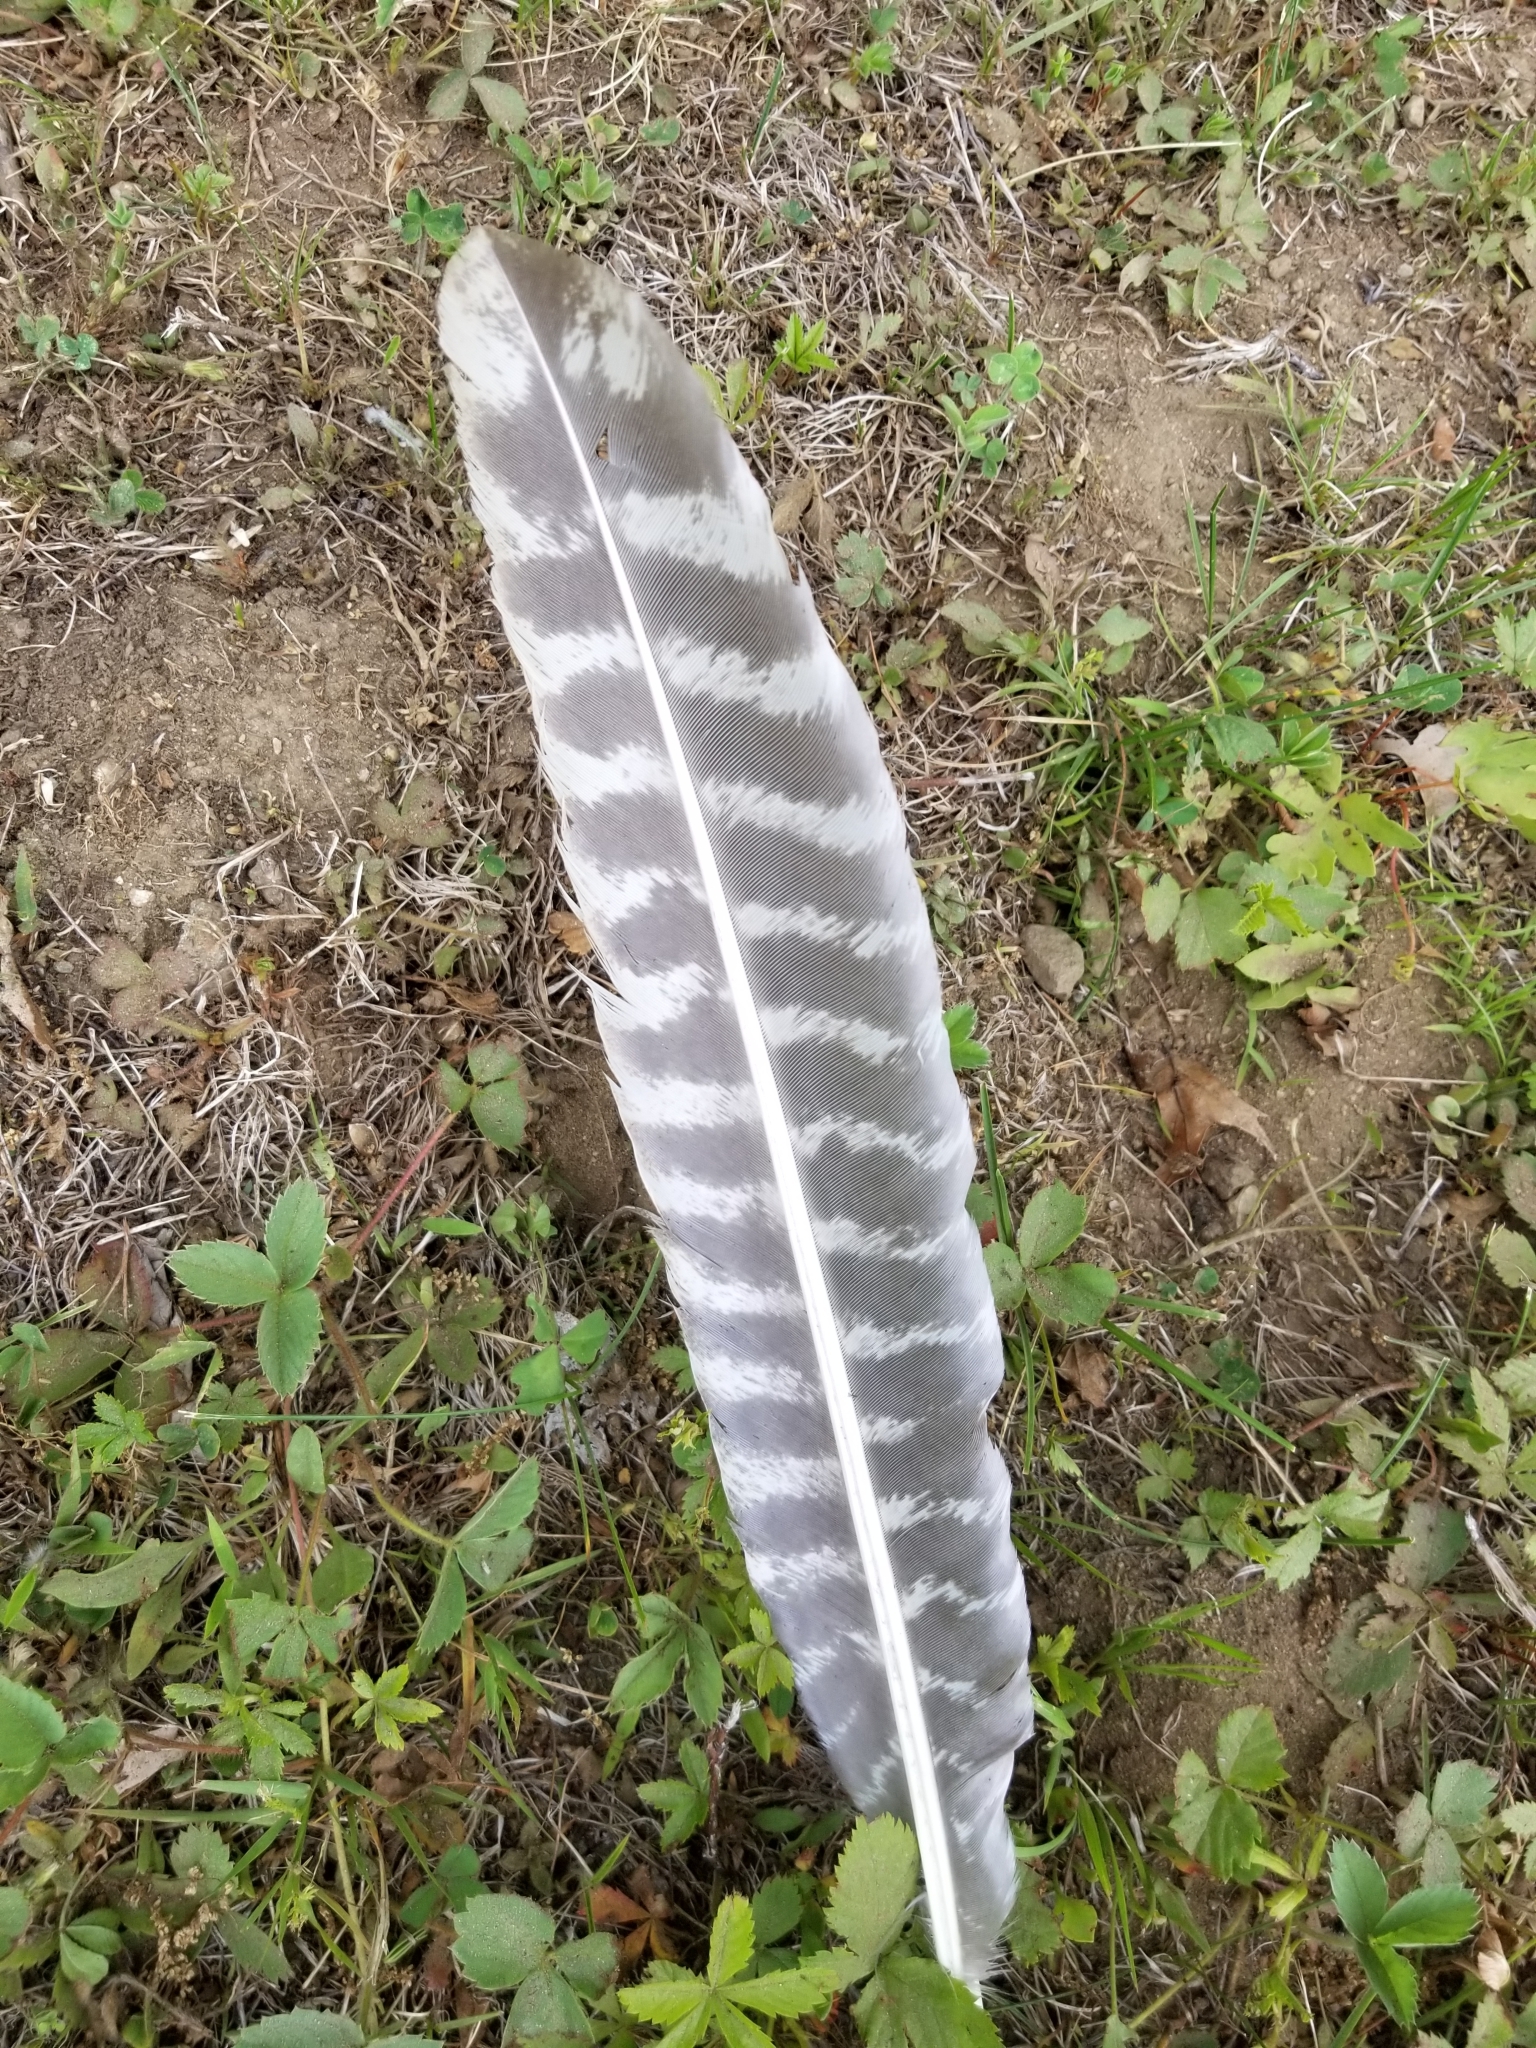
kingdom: Animalia
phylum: Chordata
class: Aves
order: Galliformes
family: Phasianidae
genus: Meleagris
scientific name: Meleagris gallopavo
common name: Wild turkey
